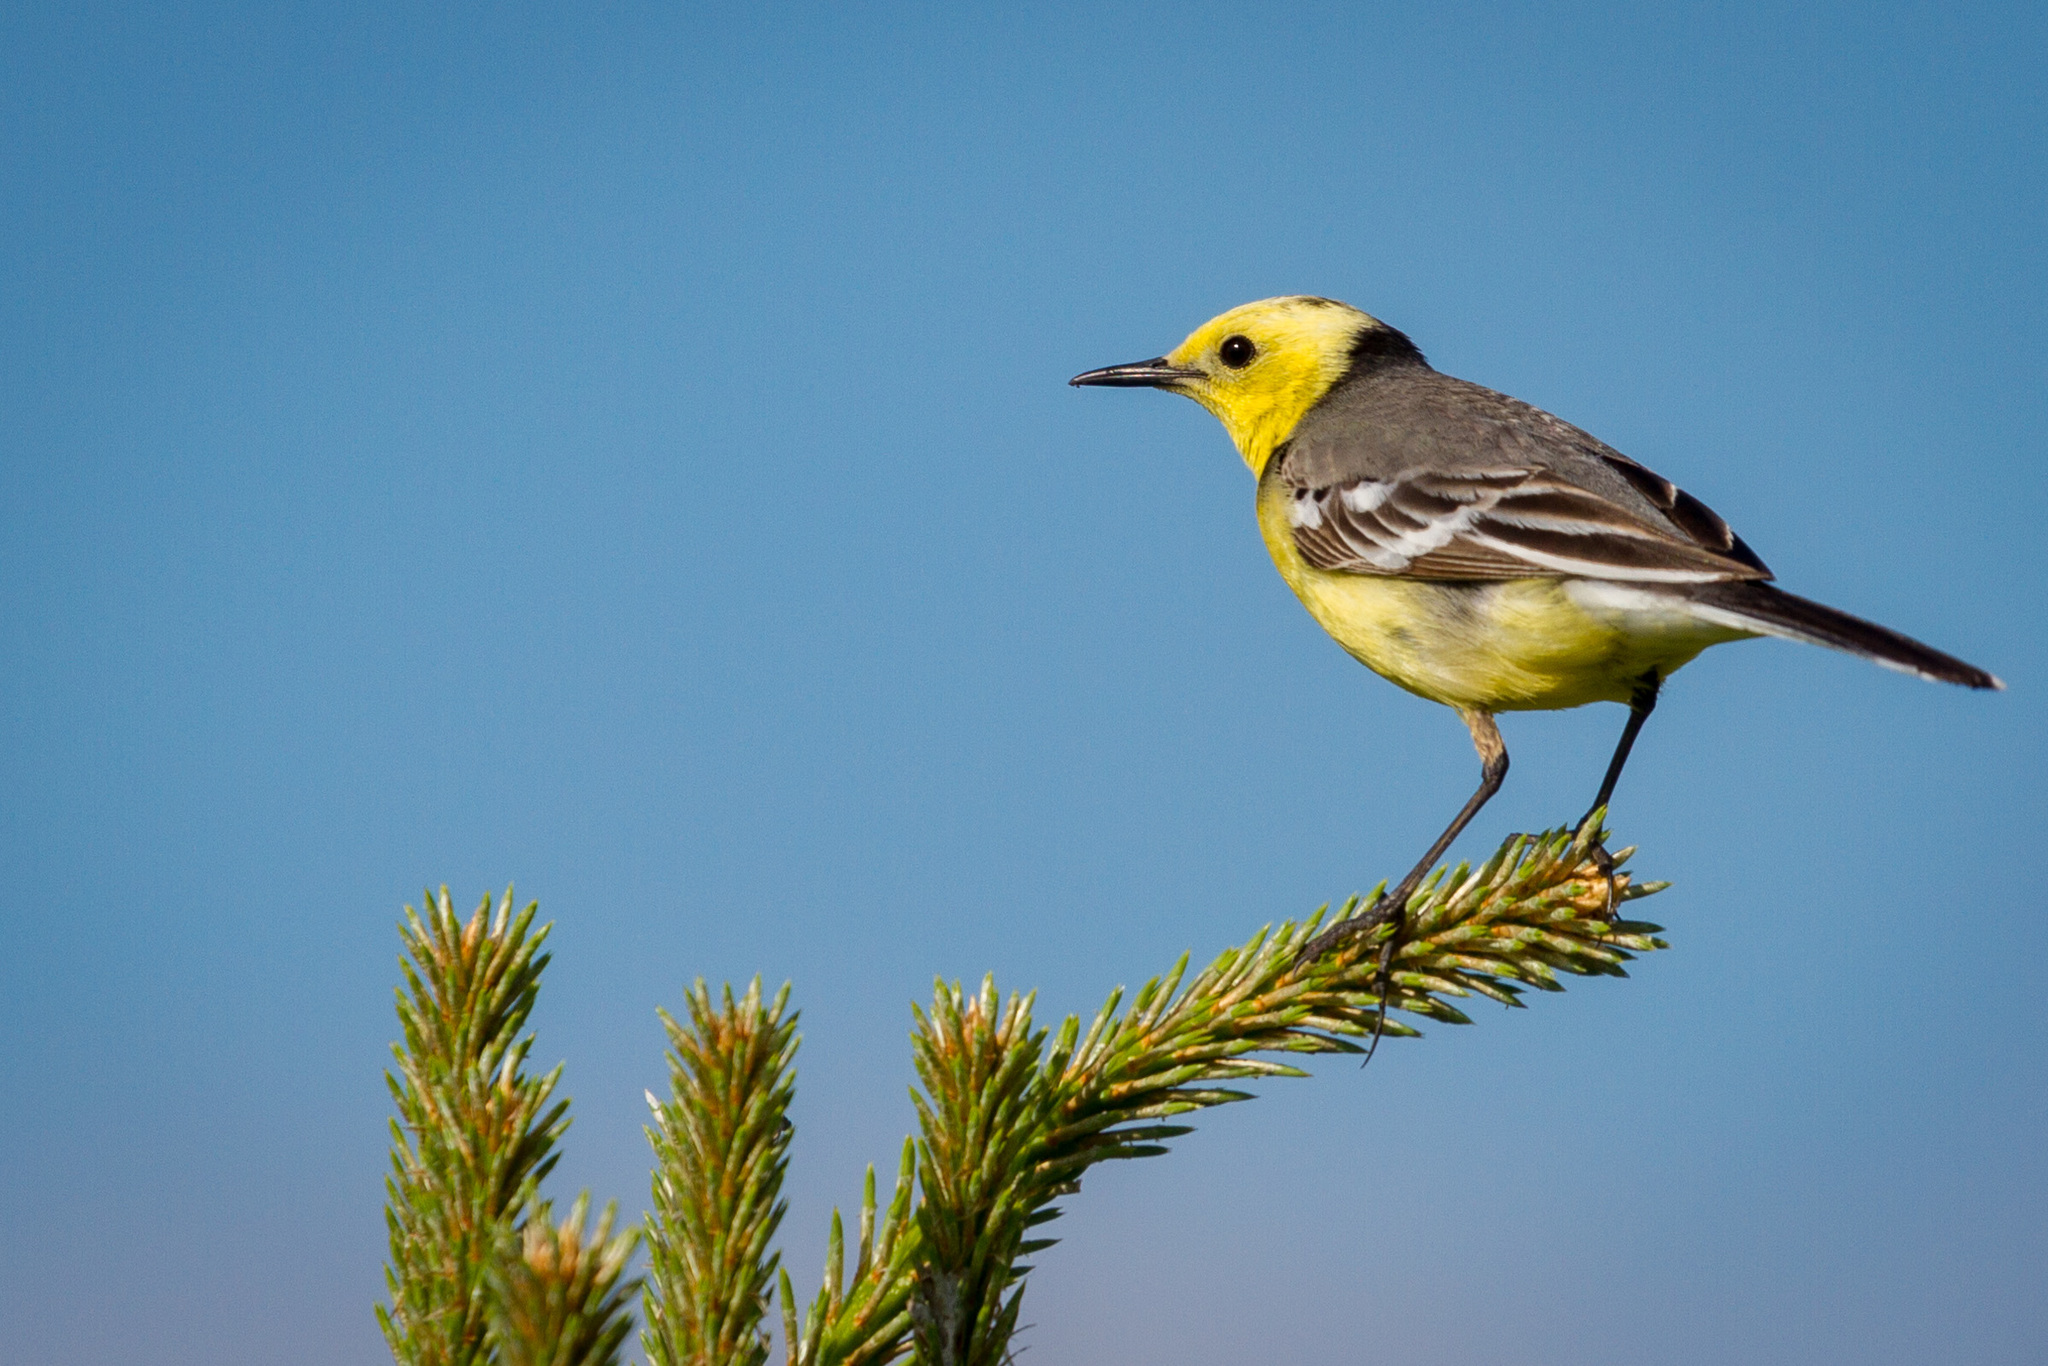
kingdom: Animalia
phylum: Chordata
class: Aves
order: Passeriformes
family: Motacillidae
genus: Motacilla
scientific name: Motacilla citreola
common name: Citrine wagtail
